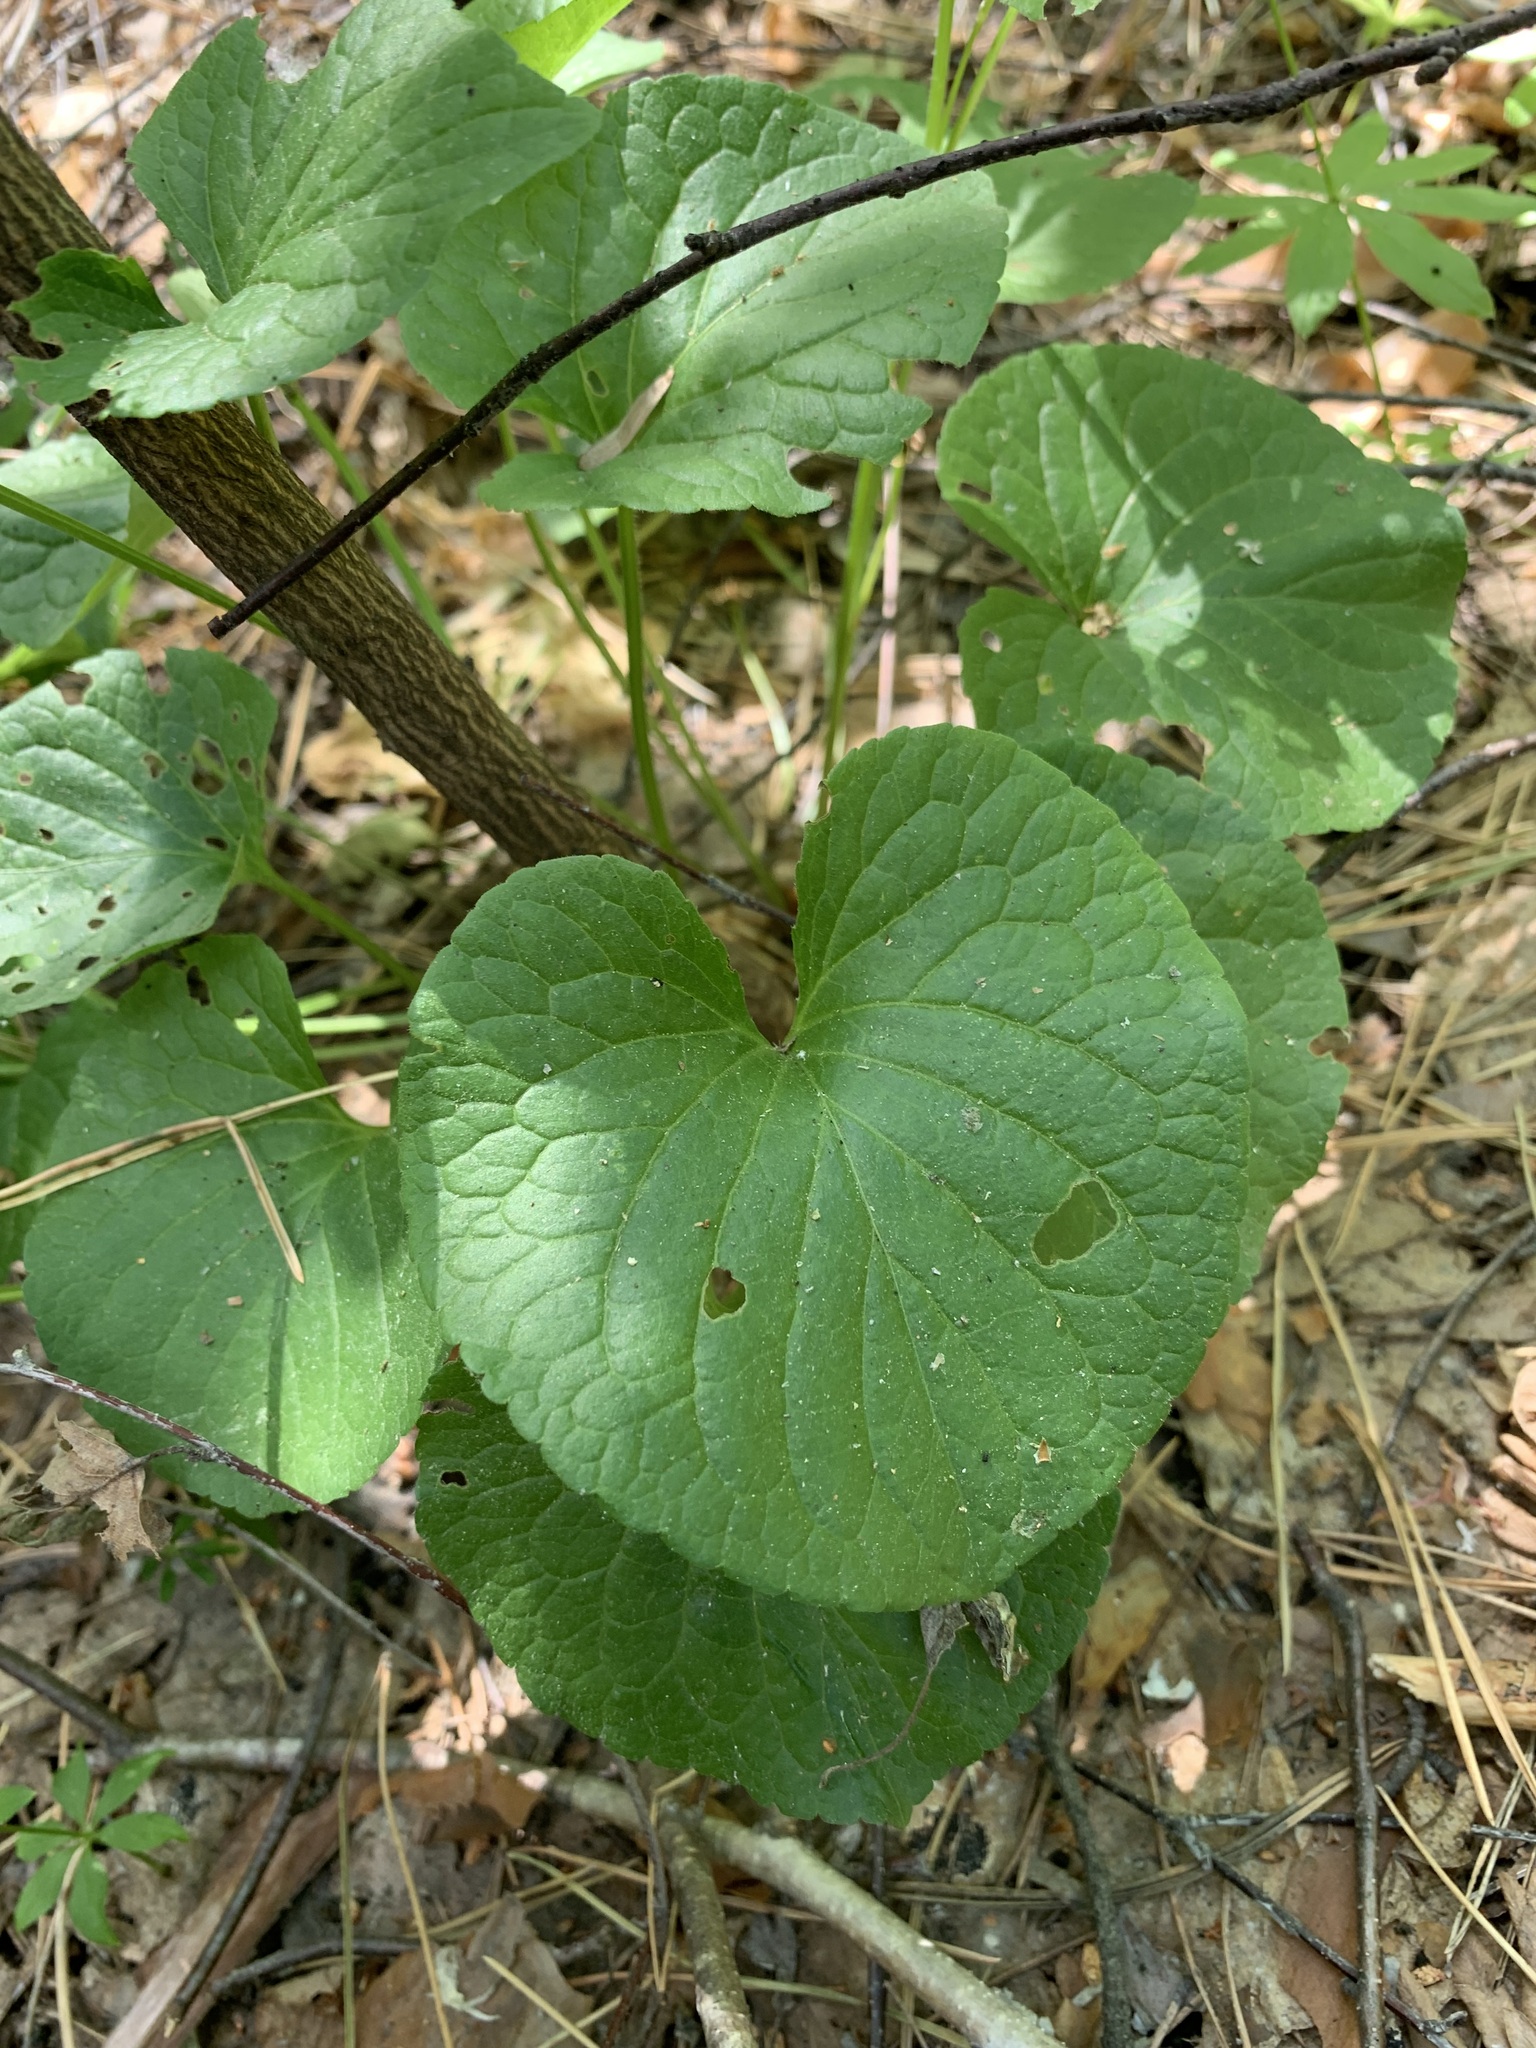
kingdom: Plantae
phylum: Tracheophyta
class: Magnoliopsida
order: Malpighiales
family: Violaceae
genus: Viola
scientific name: Viola mirabilis
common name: Wonder violet
